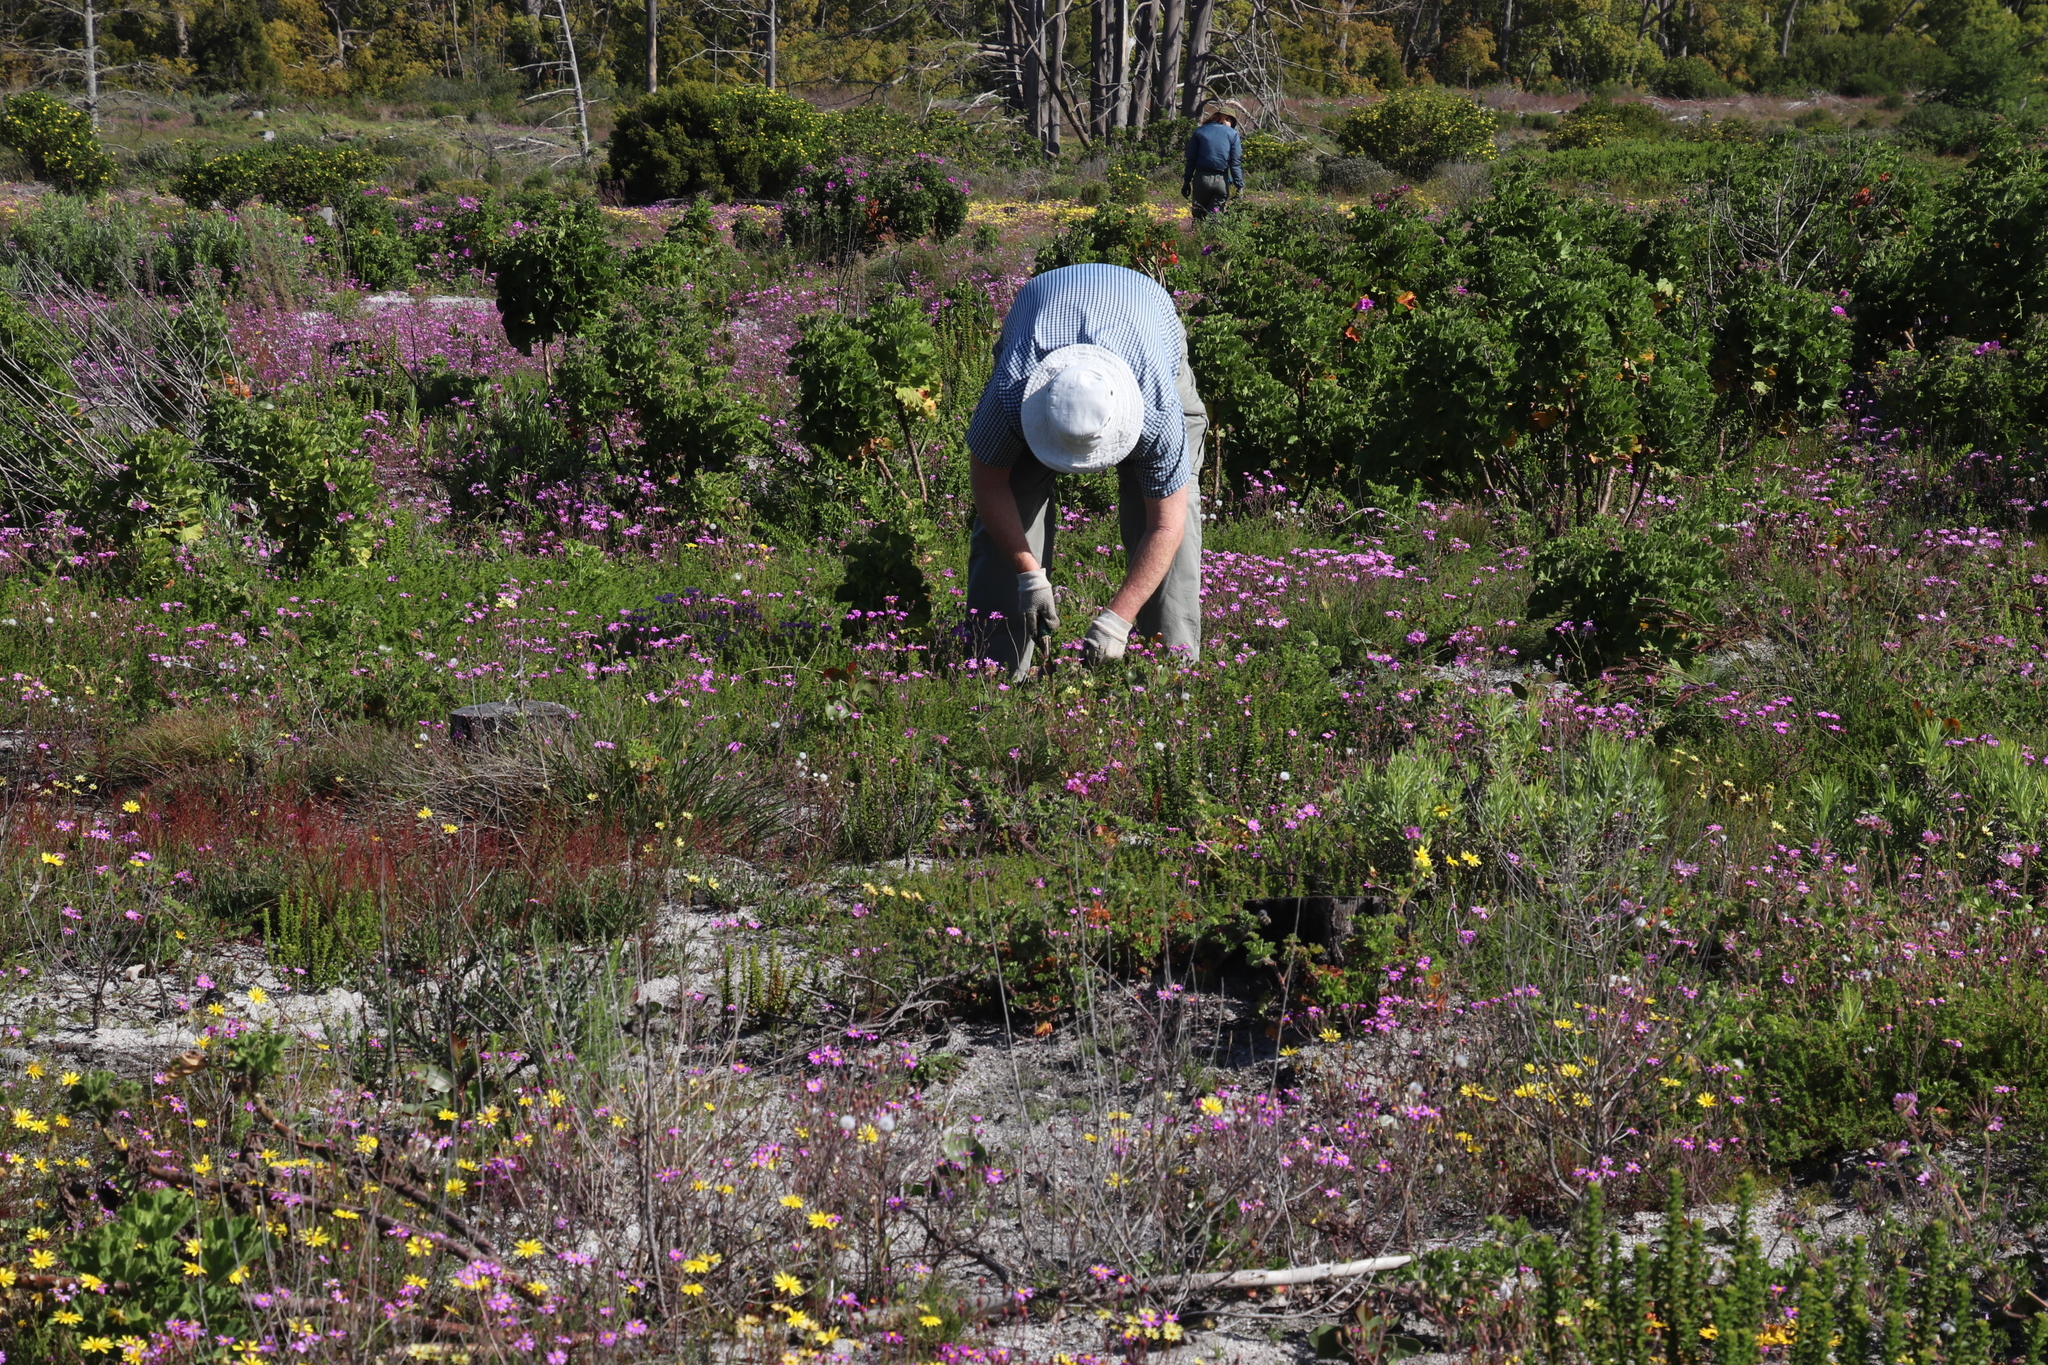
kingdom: Plantae
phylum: Tracheophyta
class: Magnoliopsida
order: Geraniales
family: Geraniaceae
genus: Pelargonium
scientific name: Pelargonium capitatum
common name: Rose scented geranium
